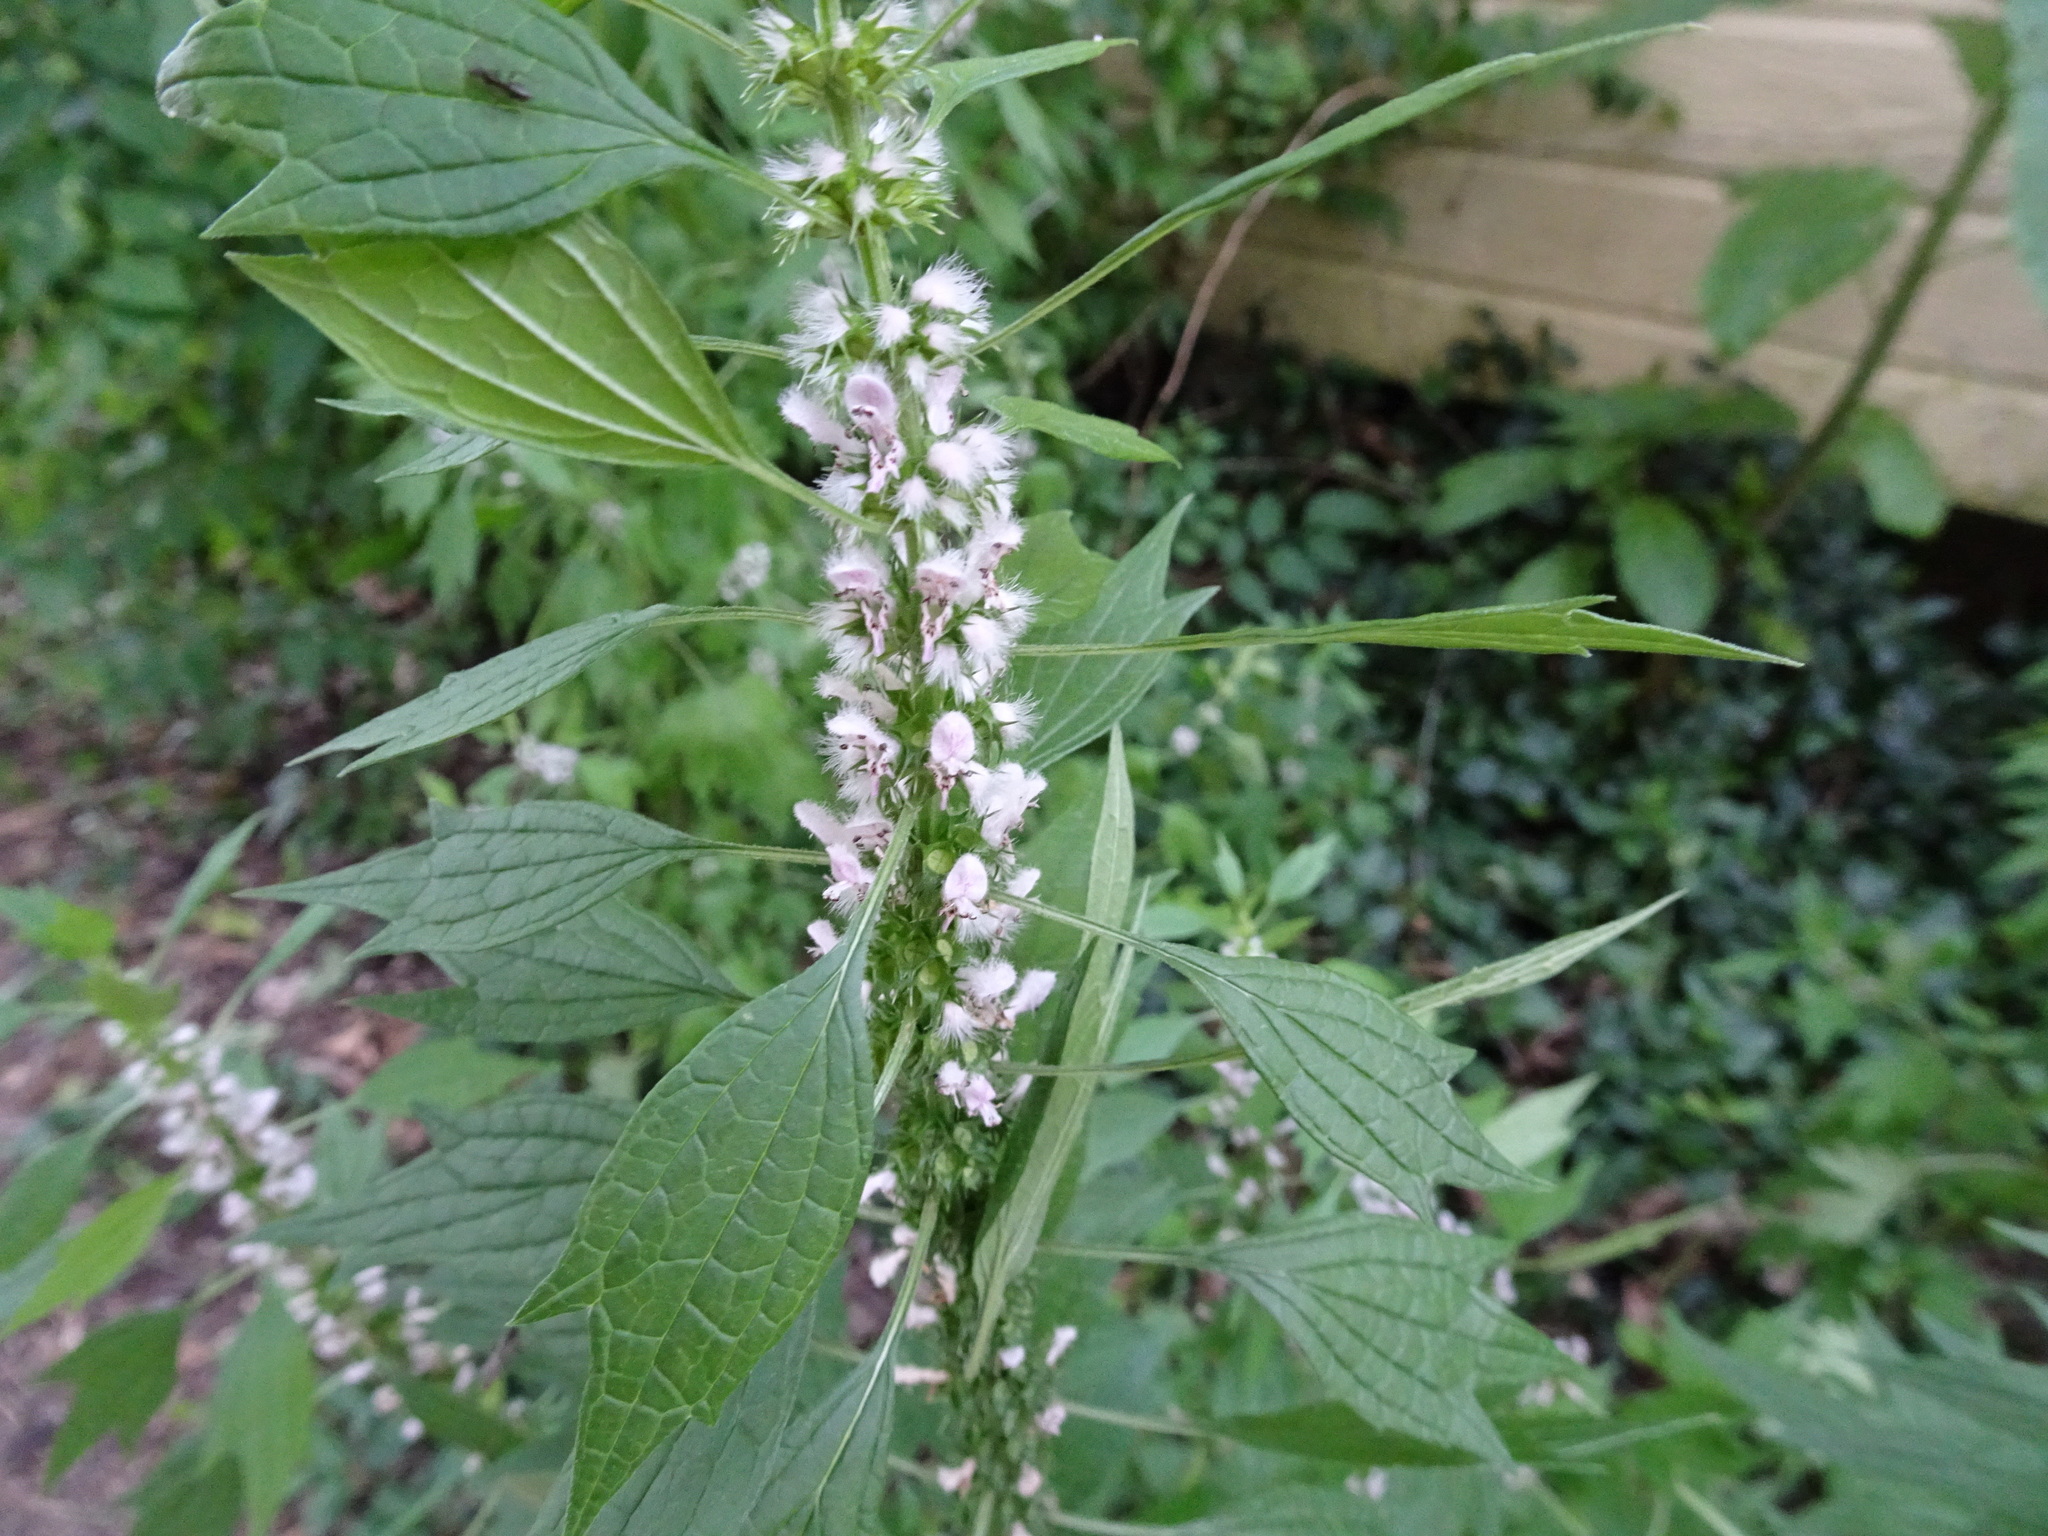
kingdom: Plantae
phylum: Tracheophyta
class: Magnoliopsida
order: Lamiales
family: Lamiaceae
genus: Leonurus
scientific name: Leonurus cardiaca
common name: Motherwort
